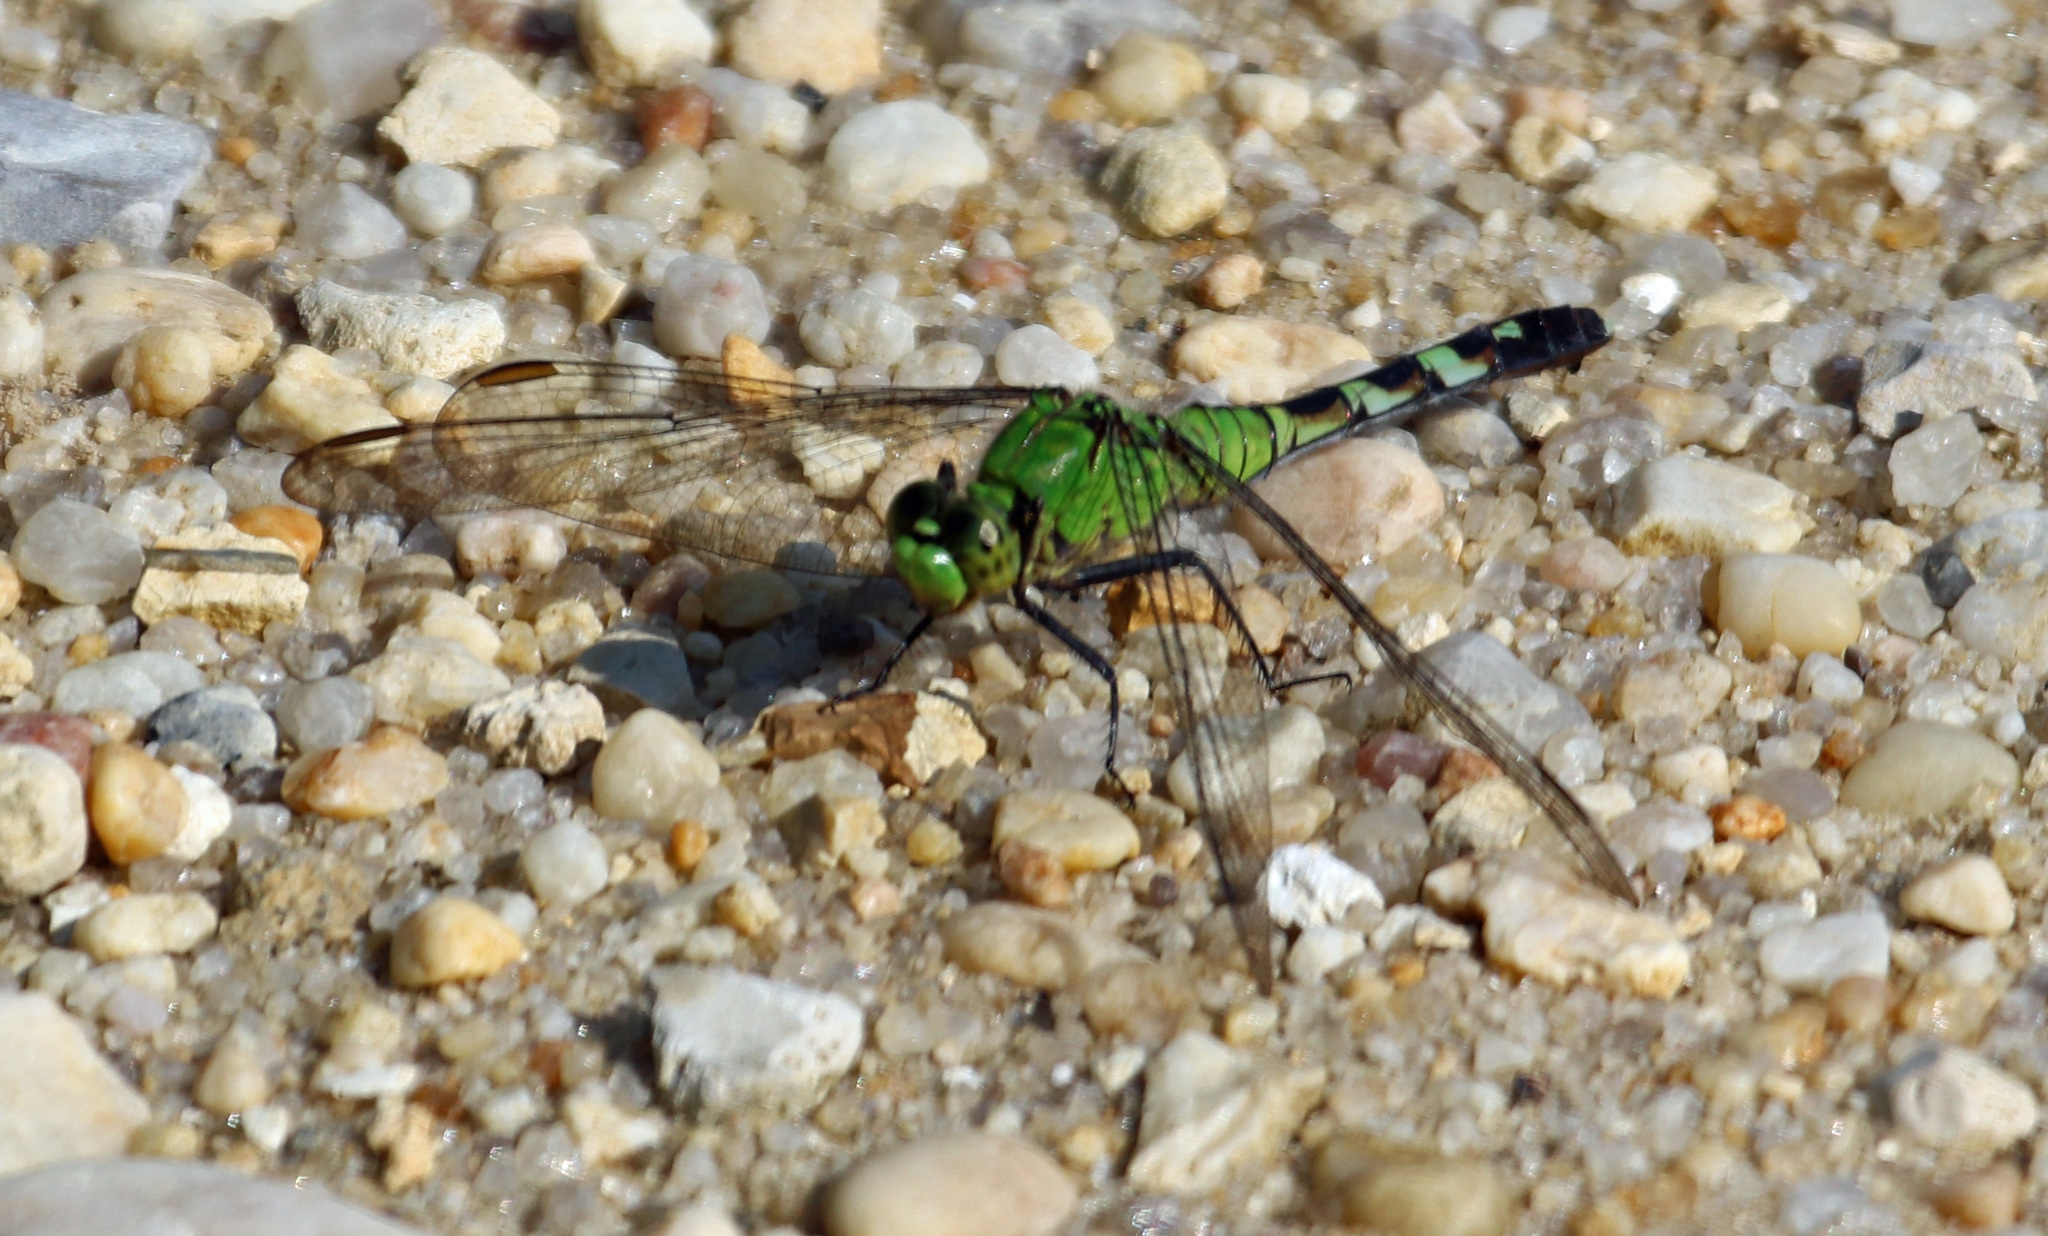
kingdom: Animalia
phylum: Arthropoda
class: Insecta
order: Odonata
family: Libellulidae
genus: Erythemis
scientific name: Erythemis simplicicollis
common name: Eastern pondhawk
